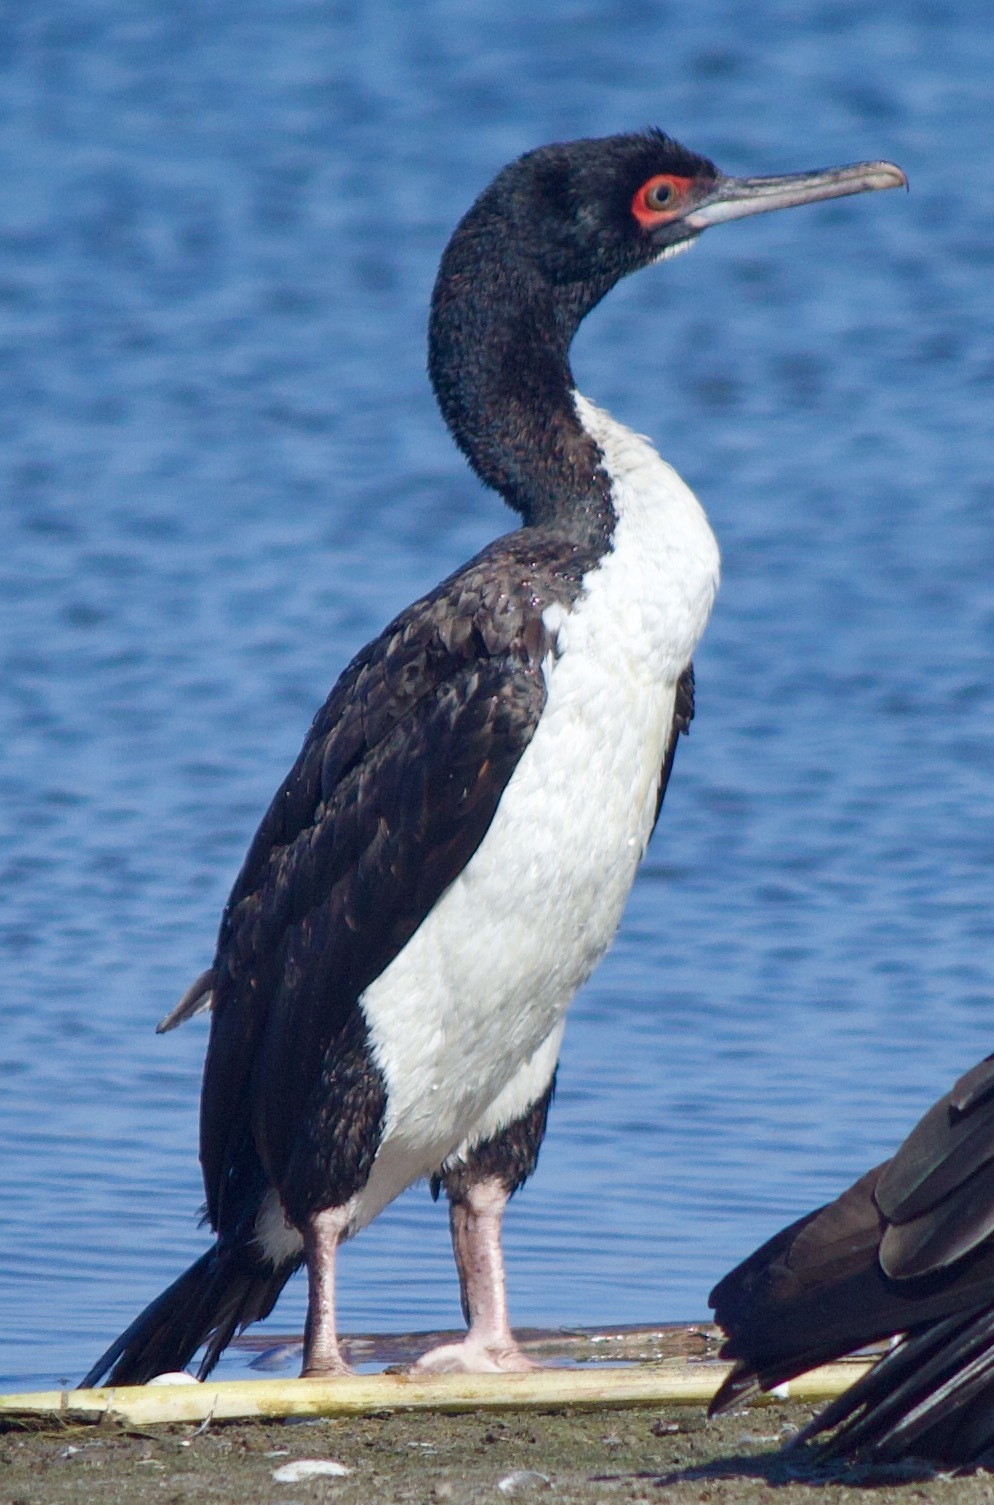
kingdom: Animalia
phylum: Chordata
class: Aves
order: Suliformes
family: Phalacrocoracidae
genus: Leucocarbo
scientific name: Leucocarbo bougainvillii
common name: Guanay cormorant
